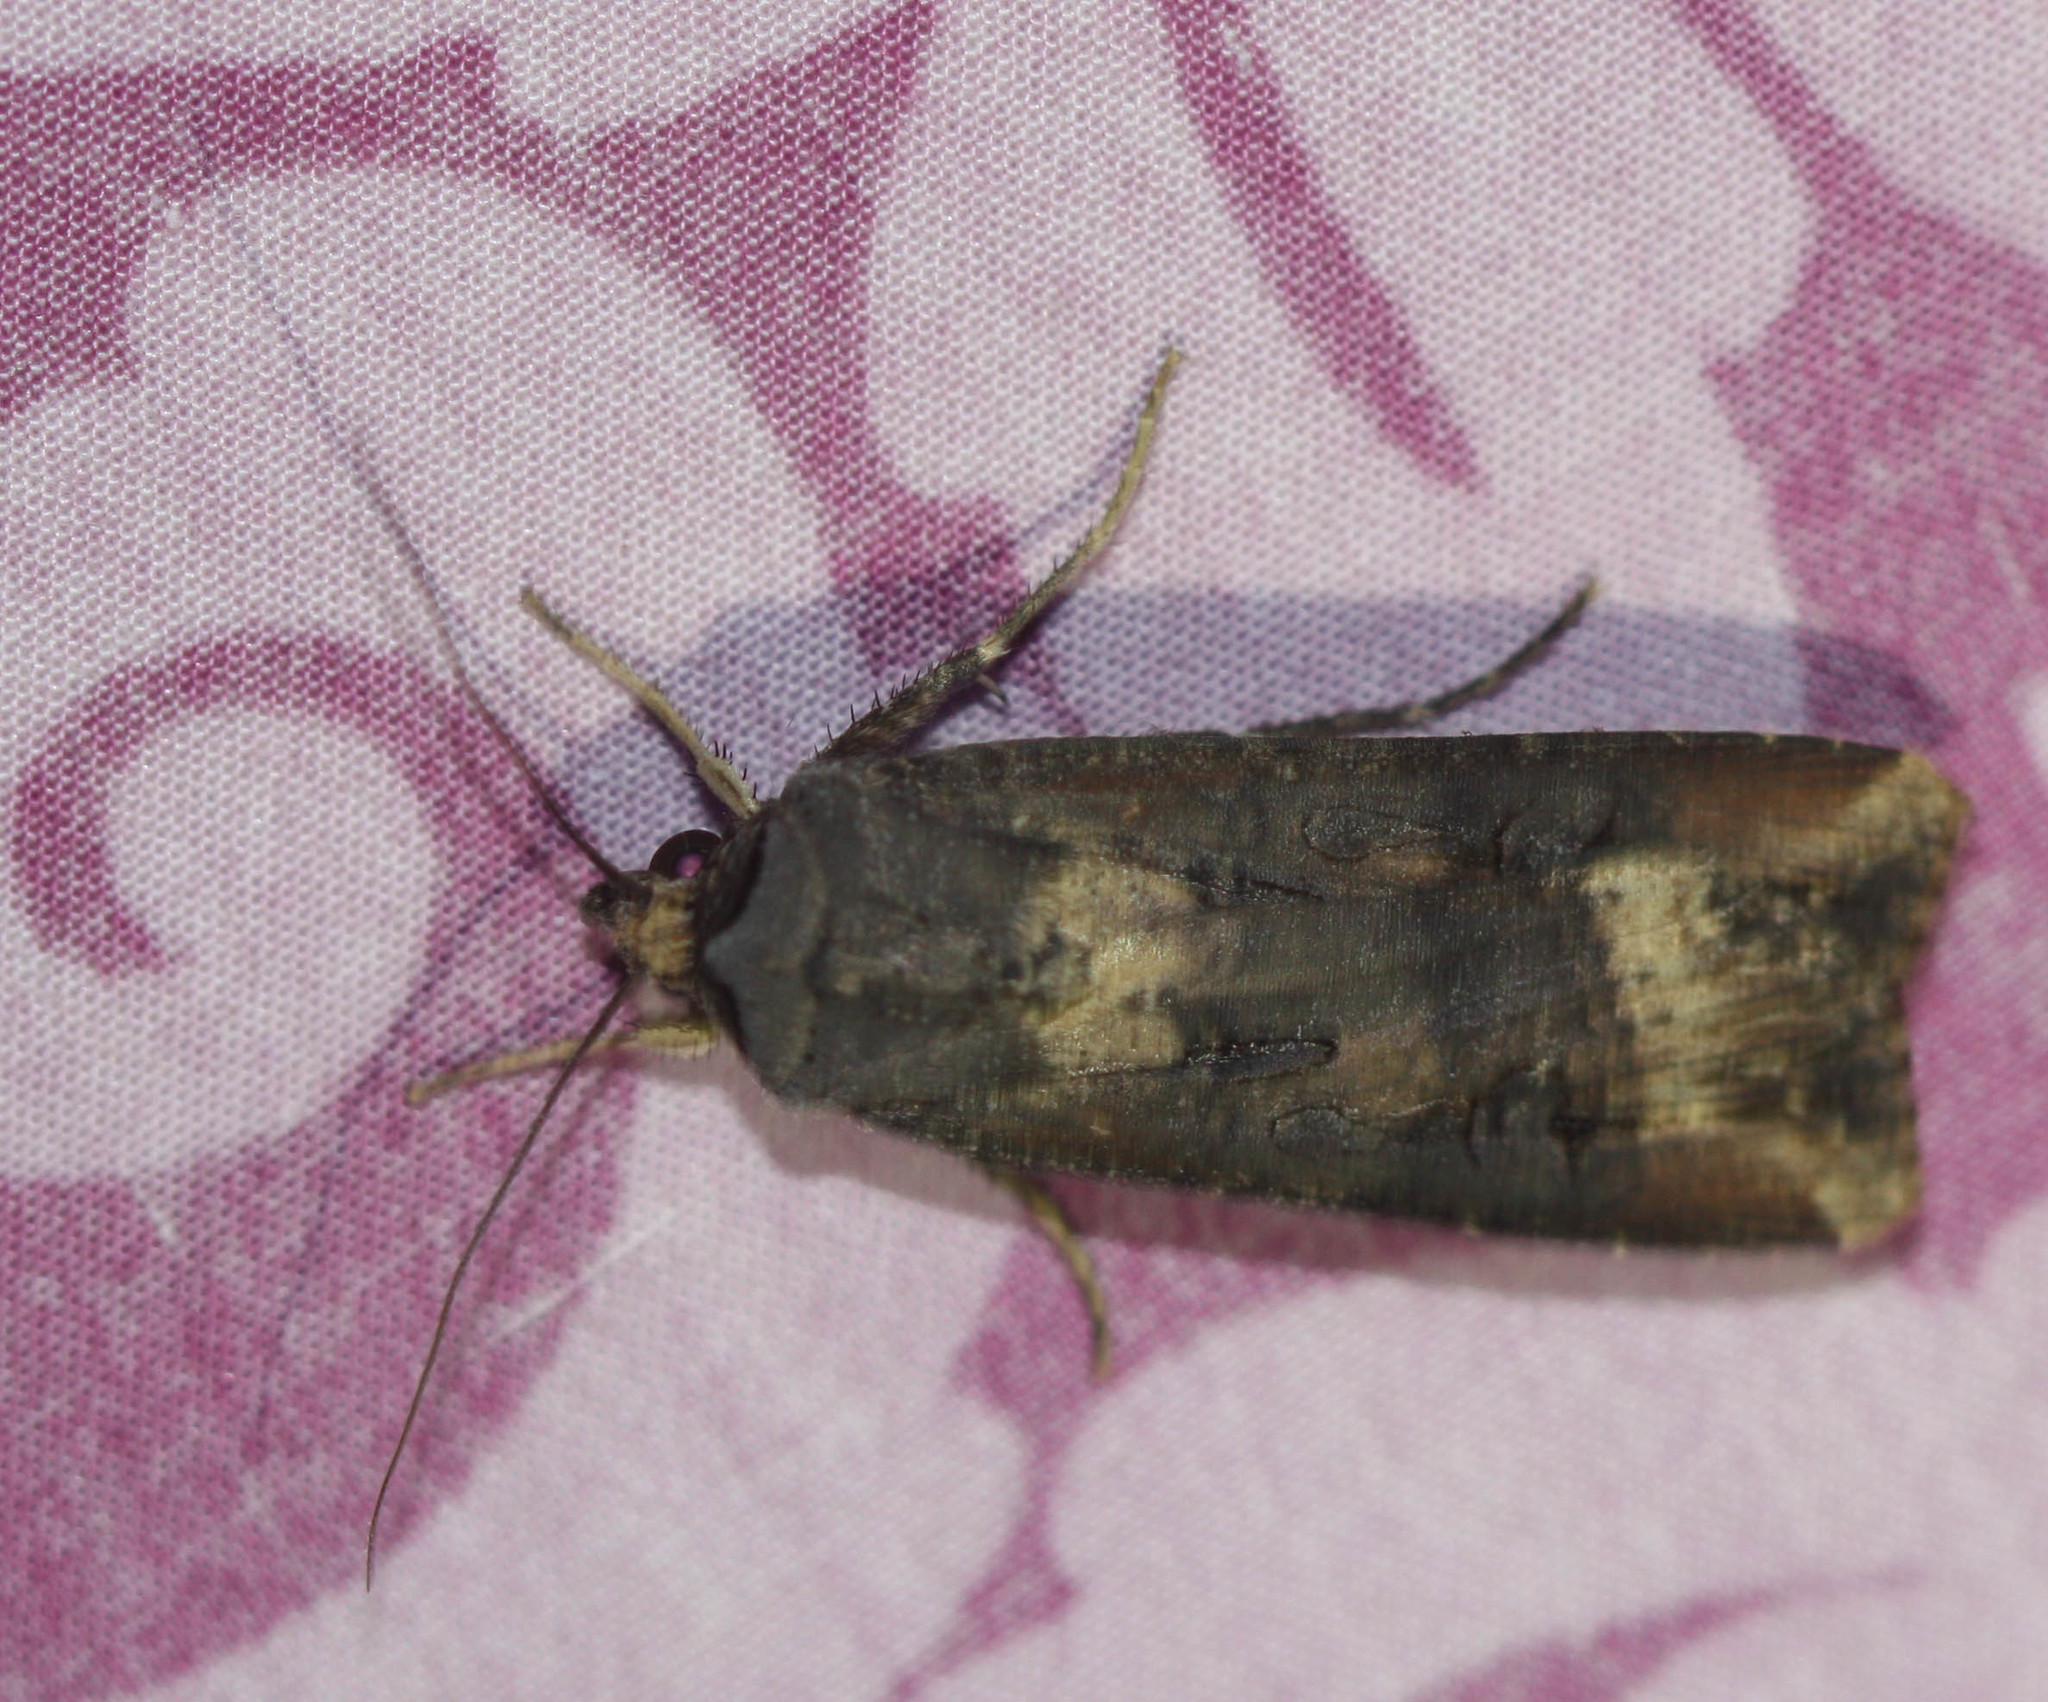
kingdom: Animalia
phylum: Arthropoda
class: Insecta
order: Lepidoptera
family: Noctuidae
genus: Agrotis
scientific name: Agrotis ipsilon
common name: Dark sword-grass
